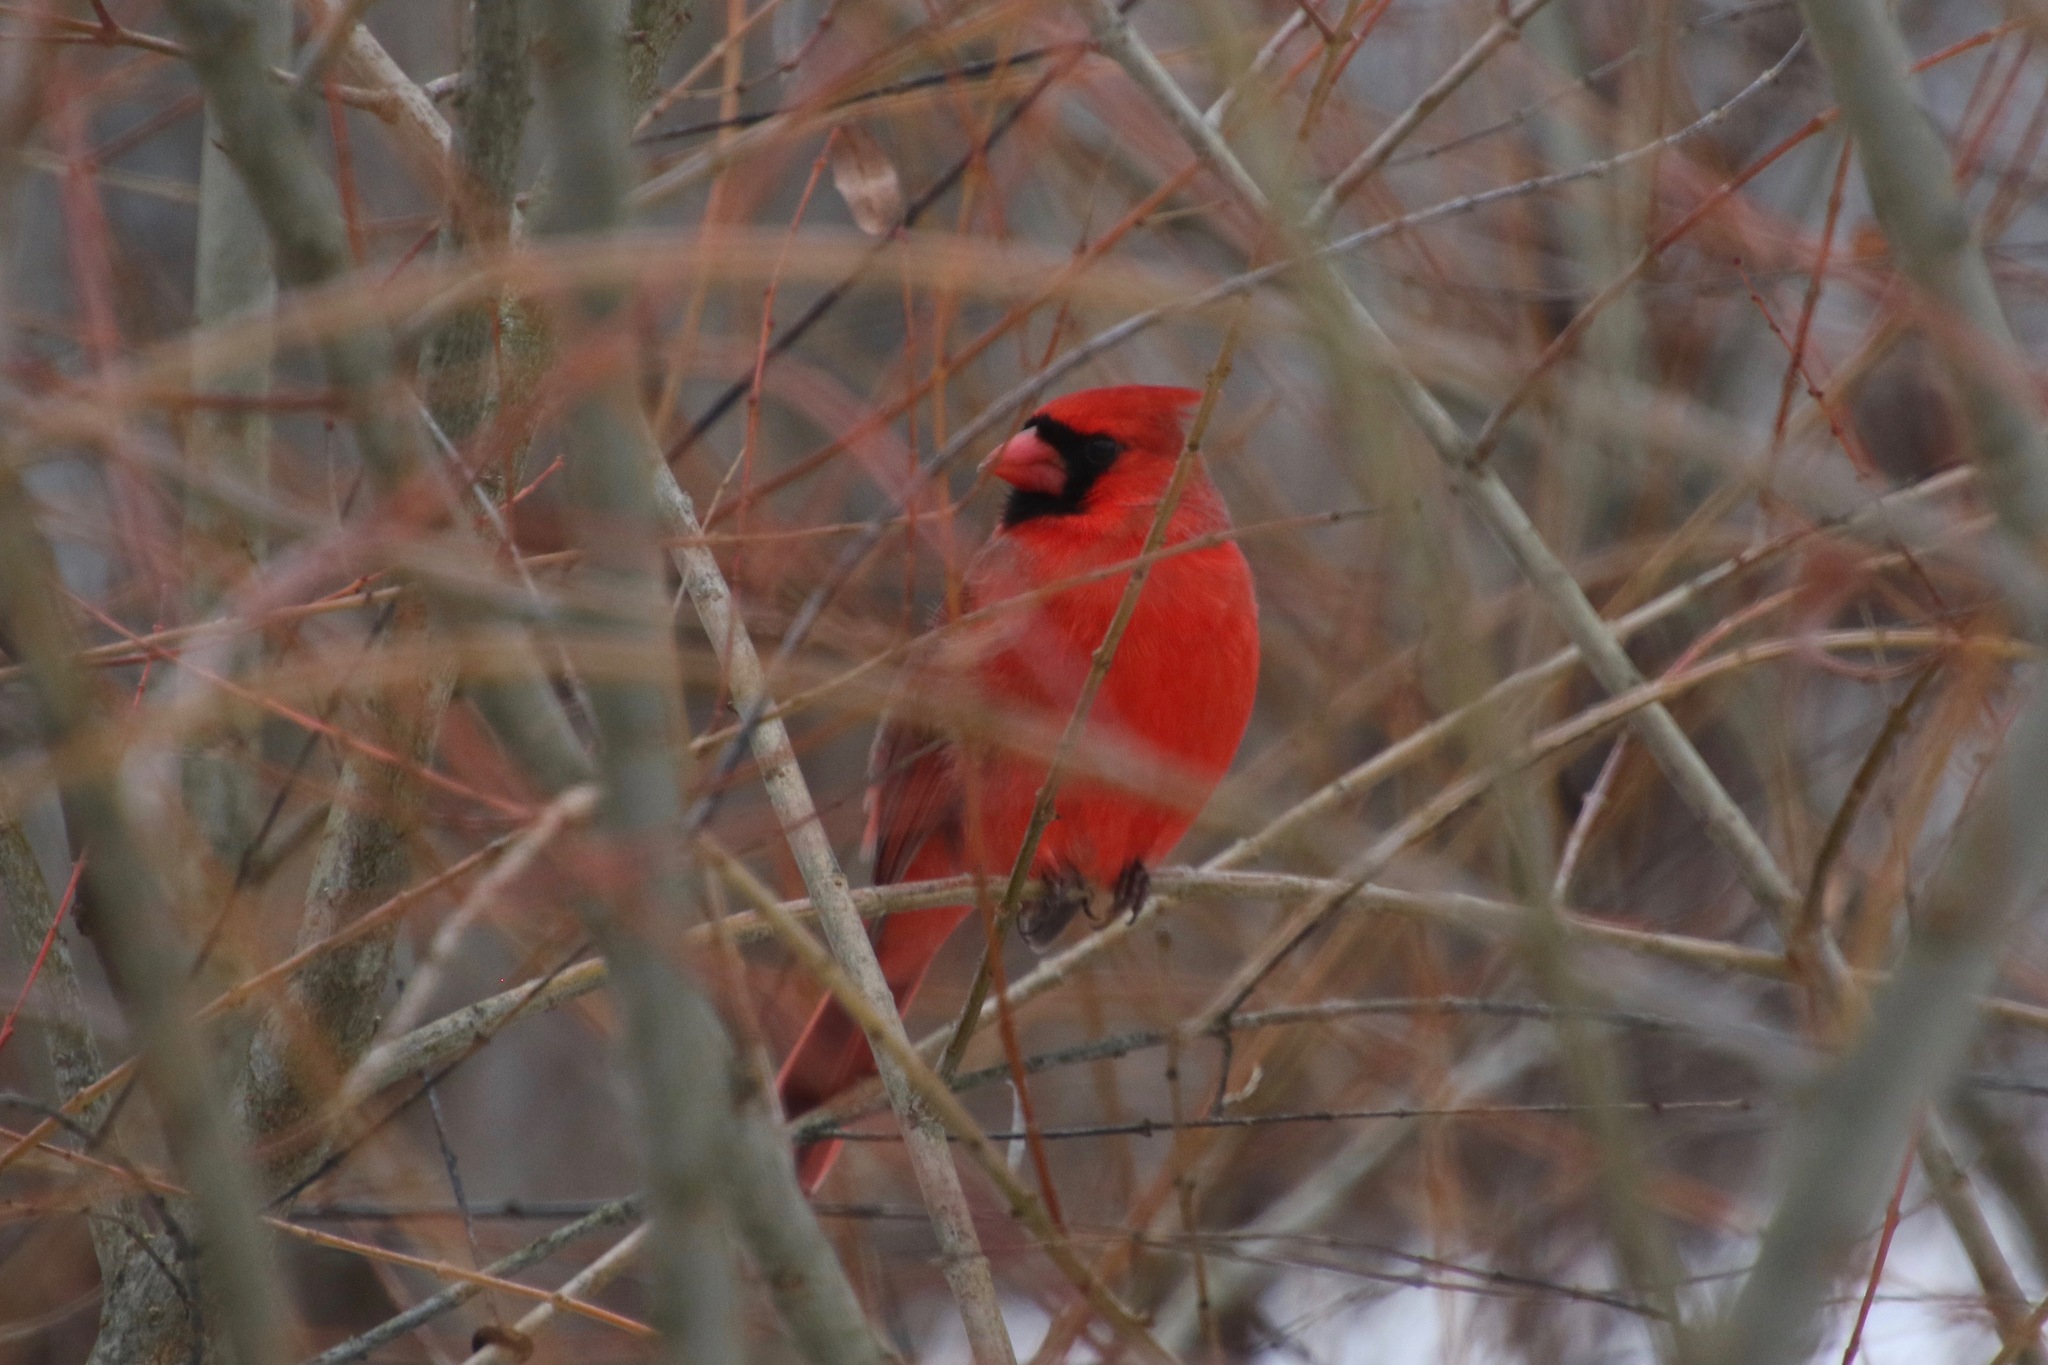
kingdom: Animalia
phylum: Chordata
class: Aves
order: Passeriformes
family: Cardinalidae
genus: Cardinalis
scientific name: Cardinalis cardinalis
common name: Northern cardinal
